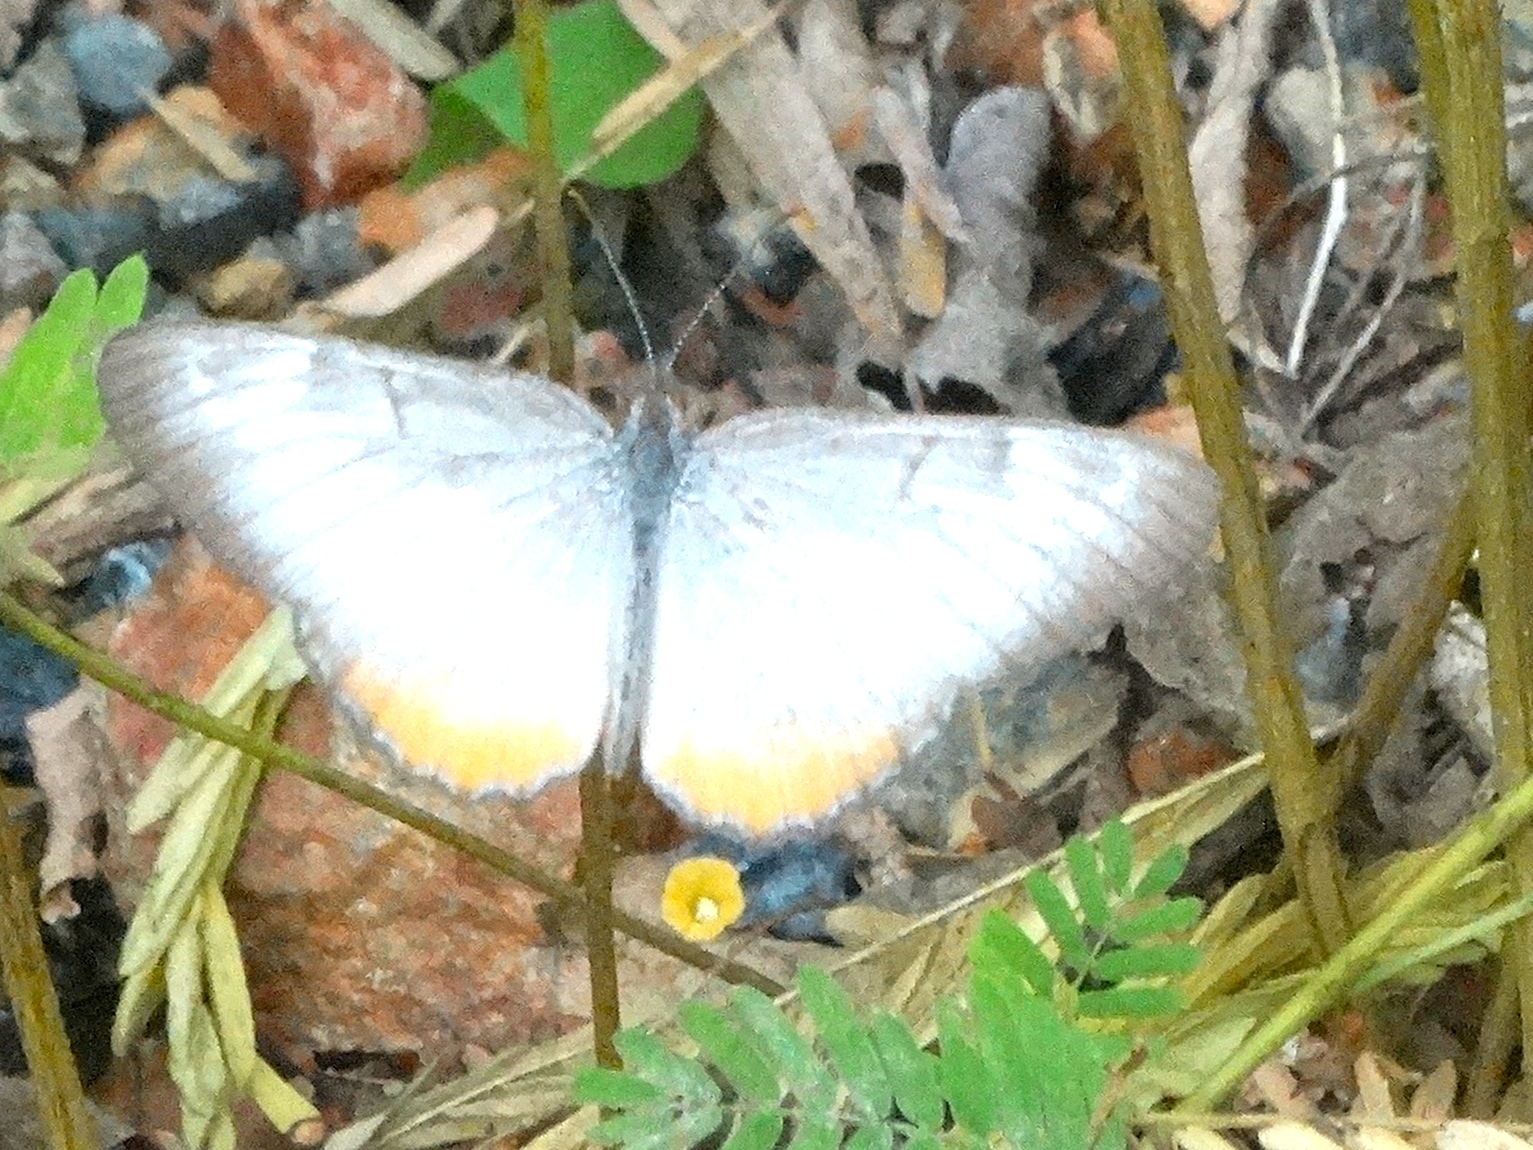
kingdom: Animalia
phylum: Arthropoda
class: Insecta
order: Lepidoptera
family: Nymphalidae
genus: Mestra
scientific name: Mestra amymone
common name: Common mestra
